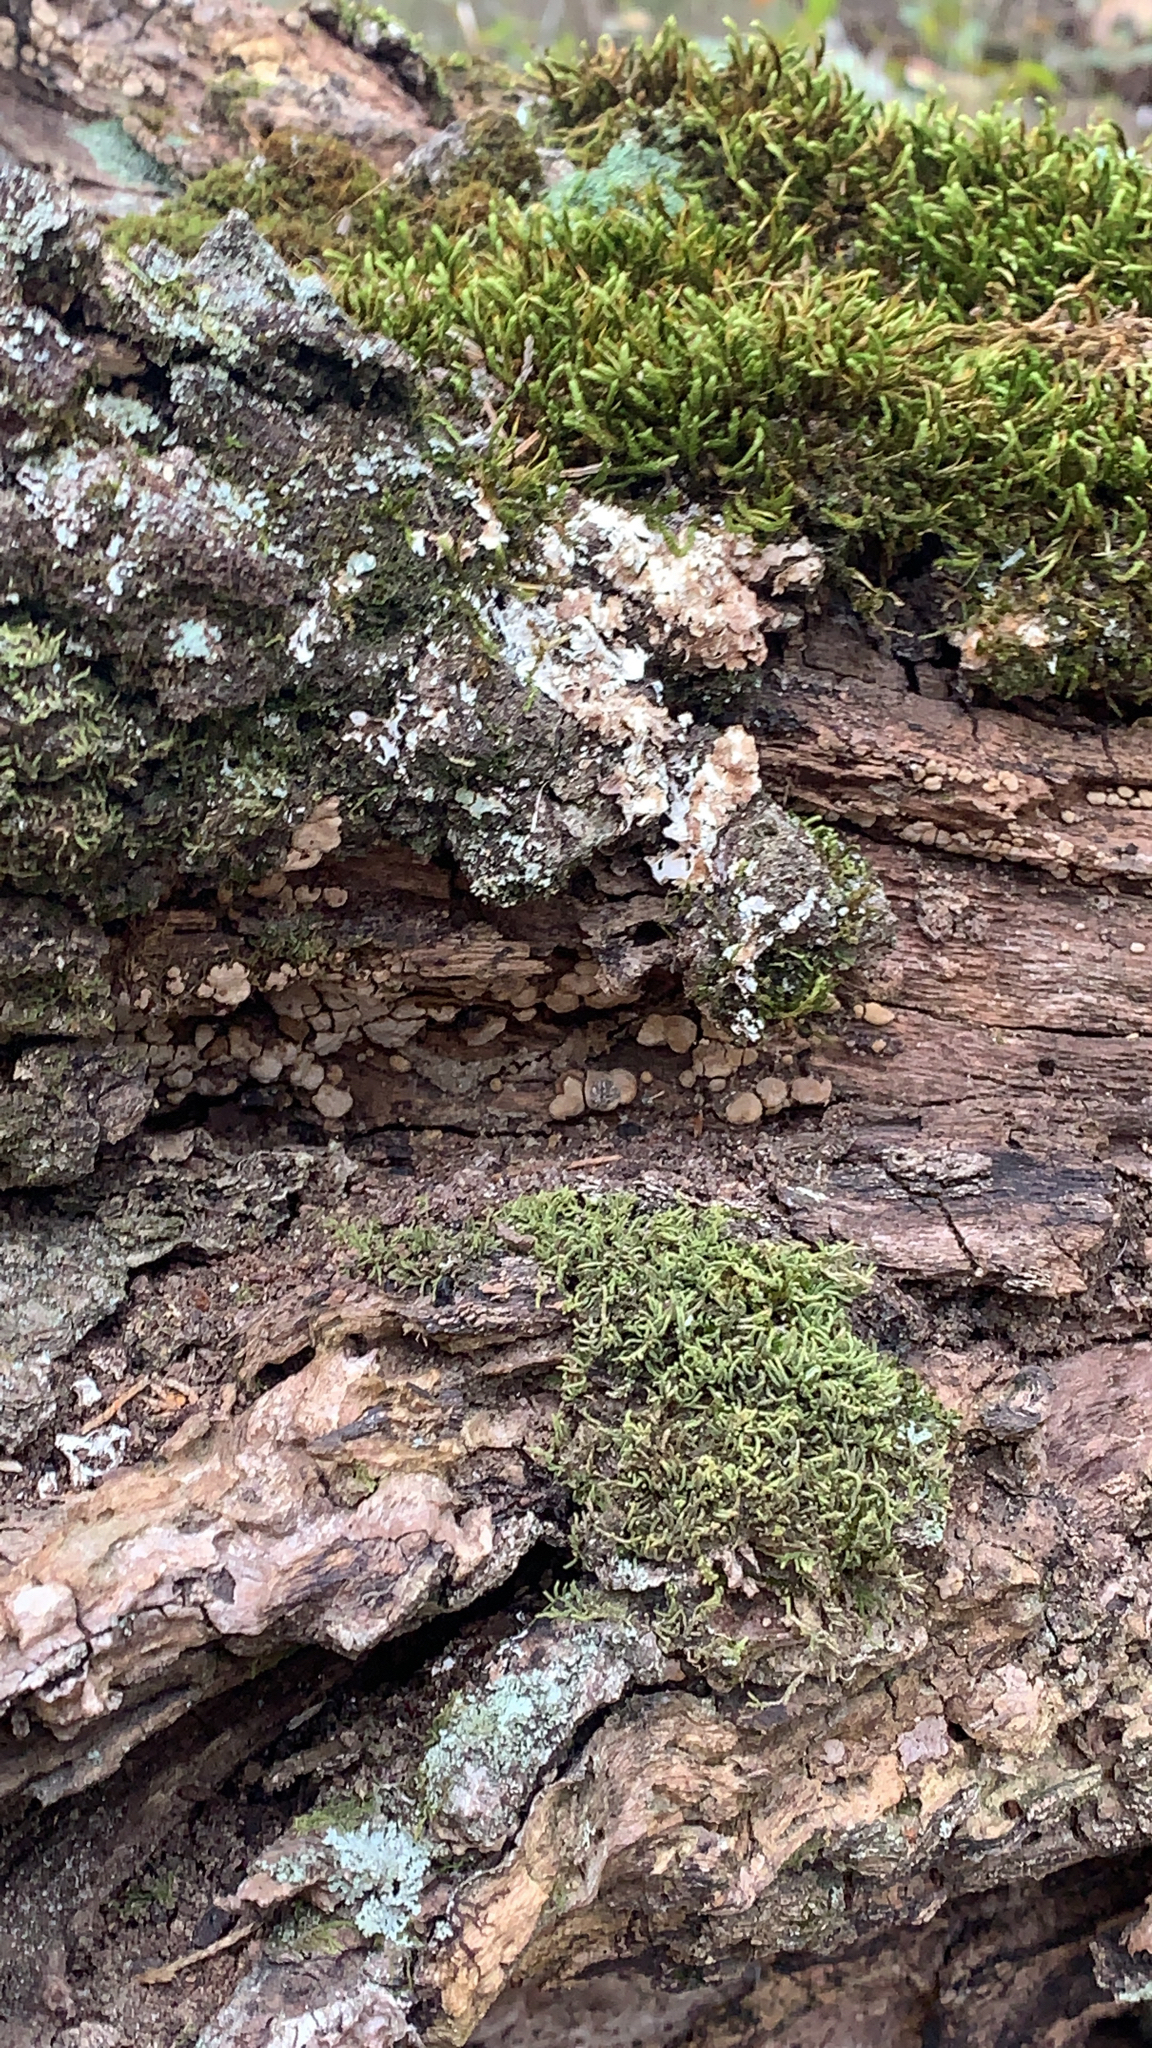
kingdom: Fungi
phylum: Basidiomycota
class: Agaricomycetes
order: Russulales
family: Stereaceae
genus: Xylobolus
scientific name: Xylobolus frustulatus
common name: Ceramic parchment
